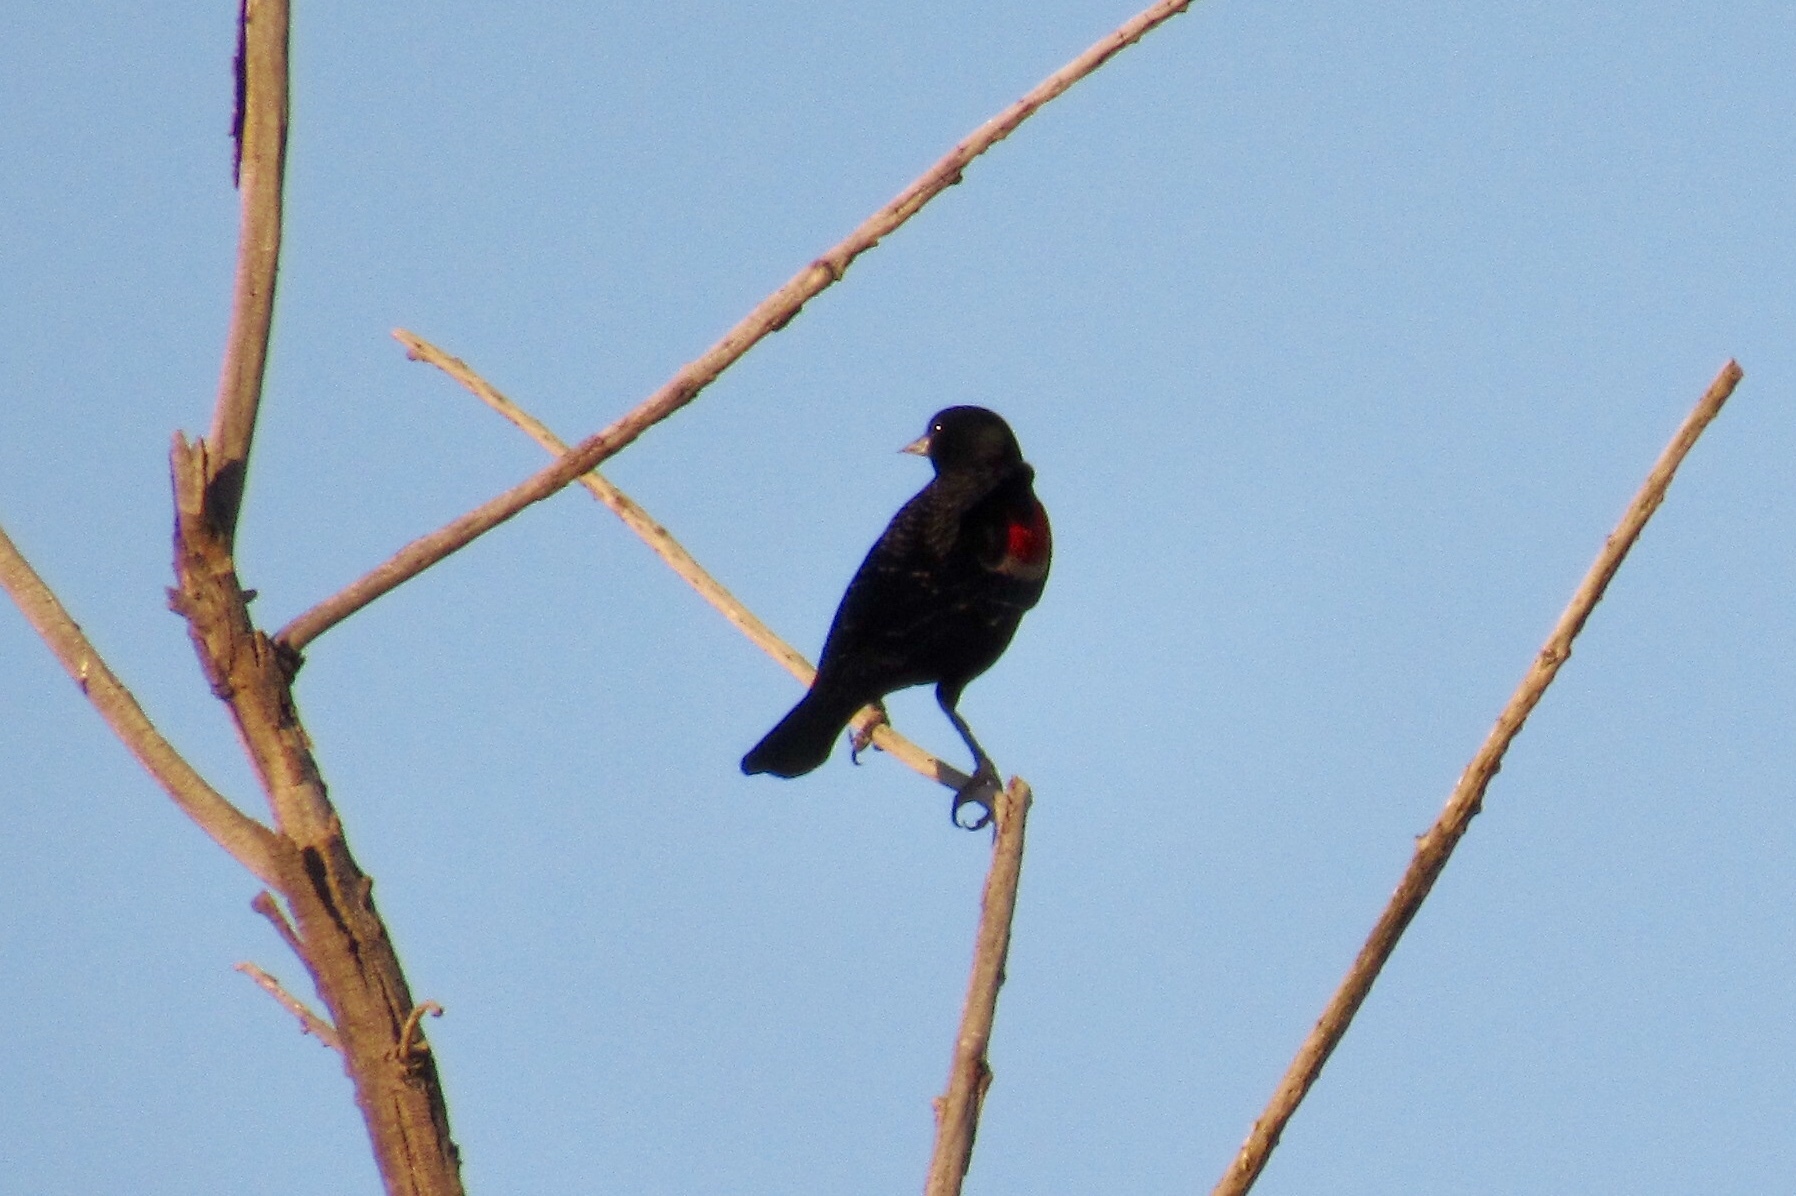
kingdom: Animalia
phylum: Chordata
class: Aves
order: Passeriformes
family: Icteridae
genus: Agelaius
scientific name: Agelaius phoeniceus
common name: Red-winged blackbird
